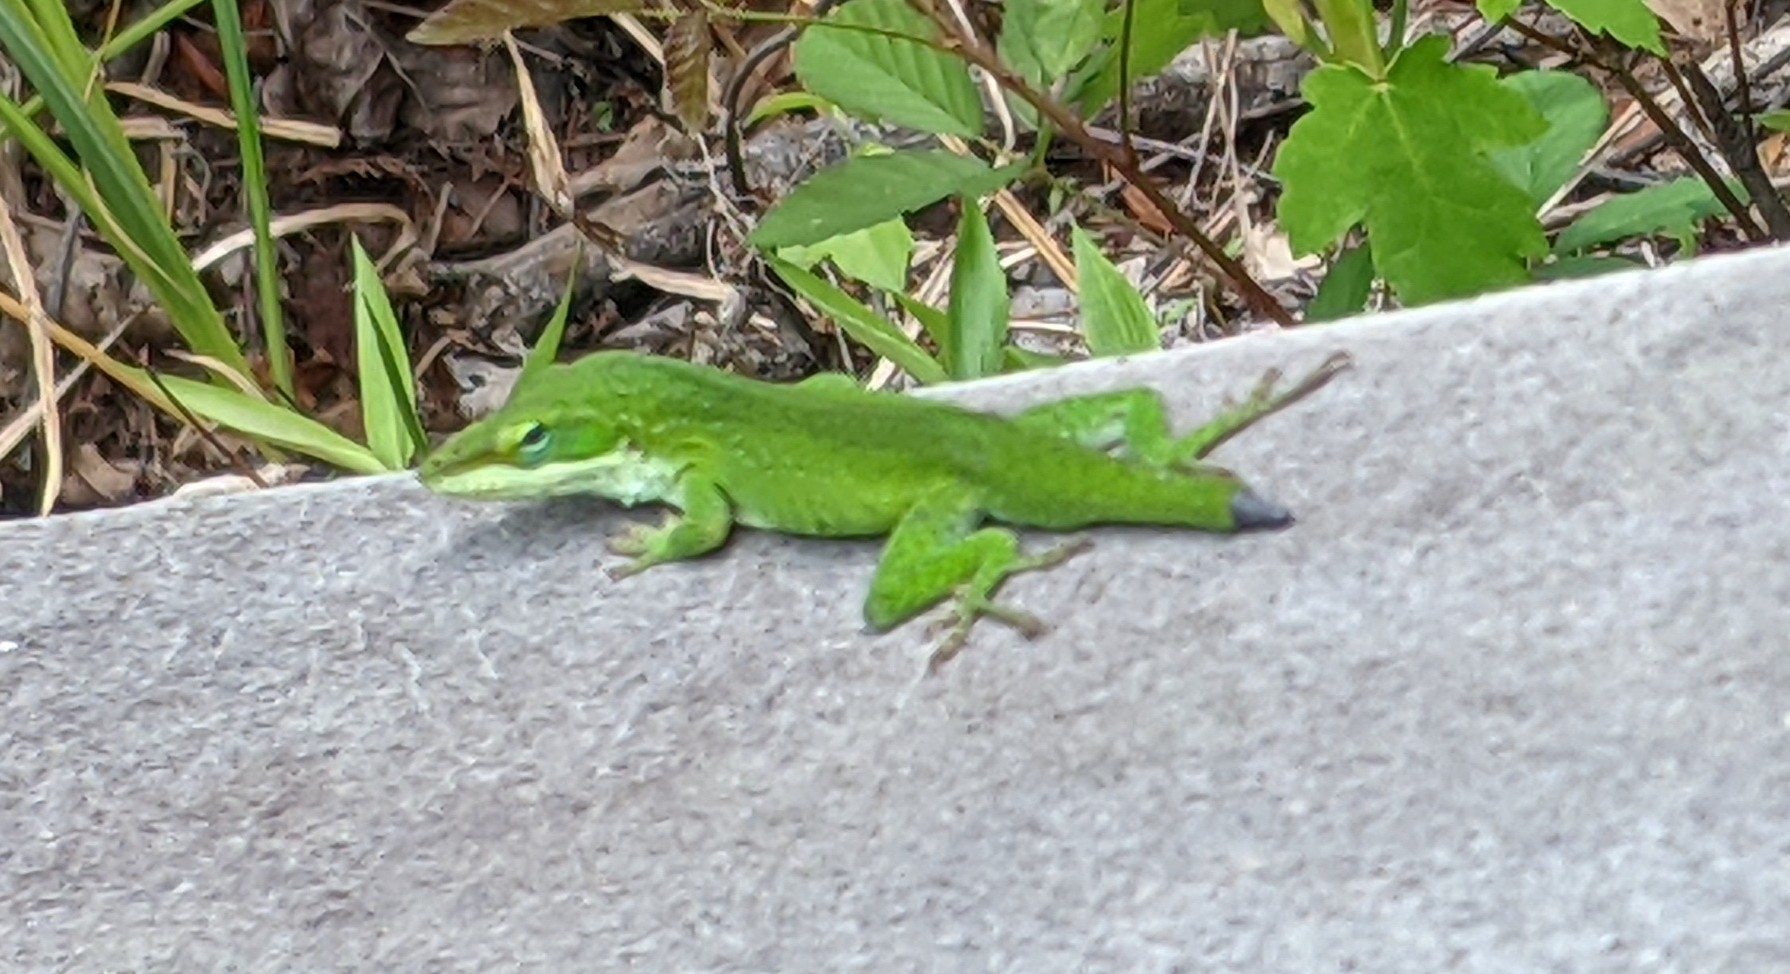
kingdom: Animalia
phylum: Chordata
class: Squamata
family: Dactyloidae
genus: Anolis
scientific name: Anolis carolinensis
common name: Green anole
